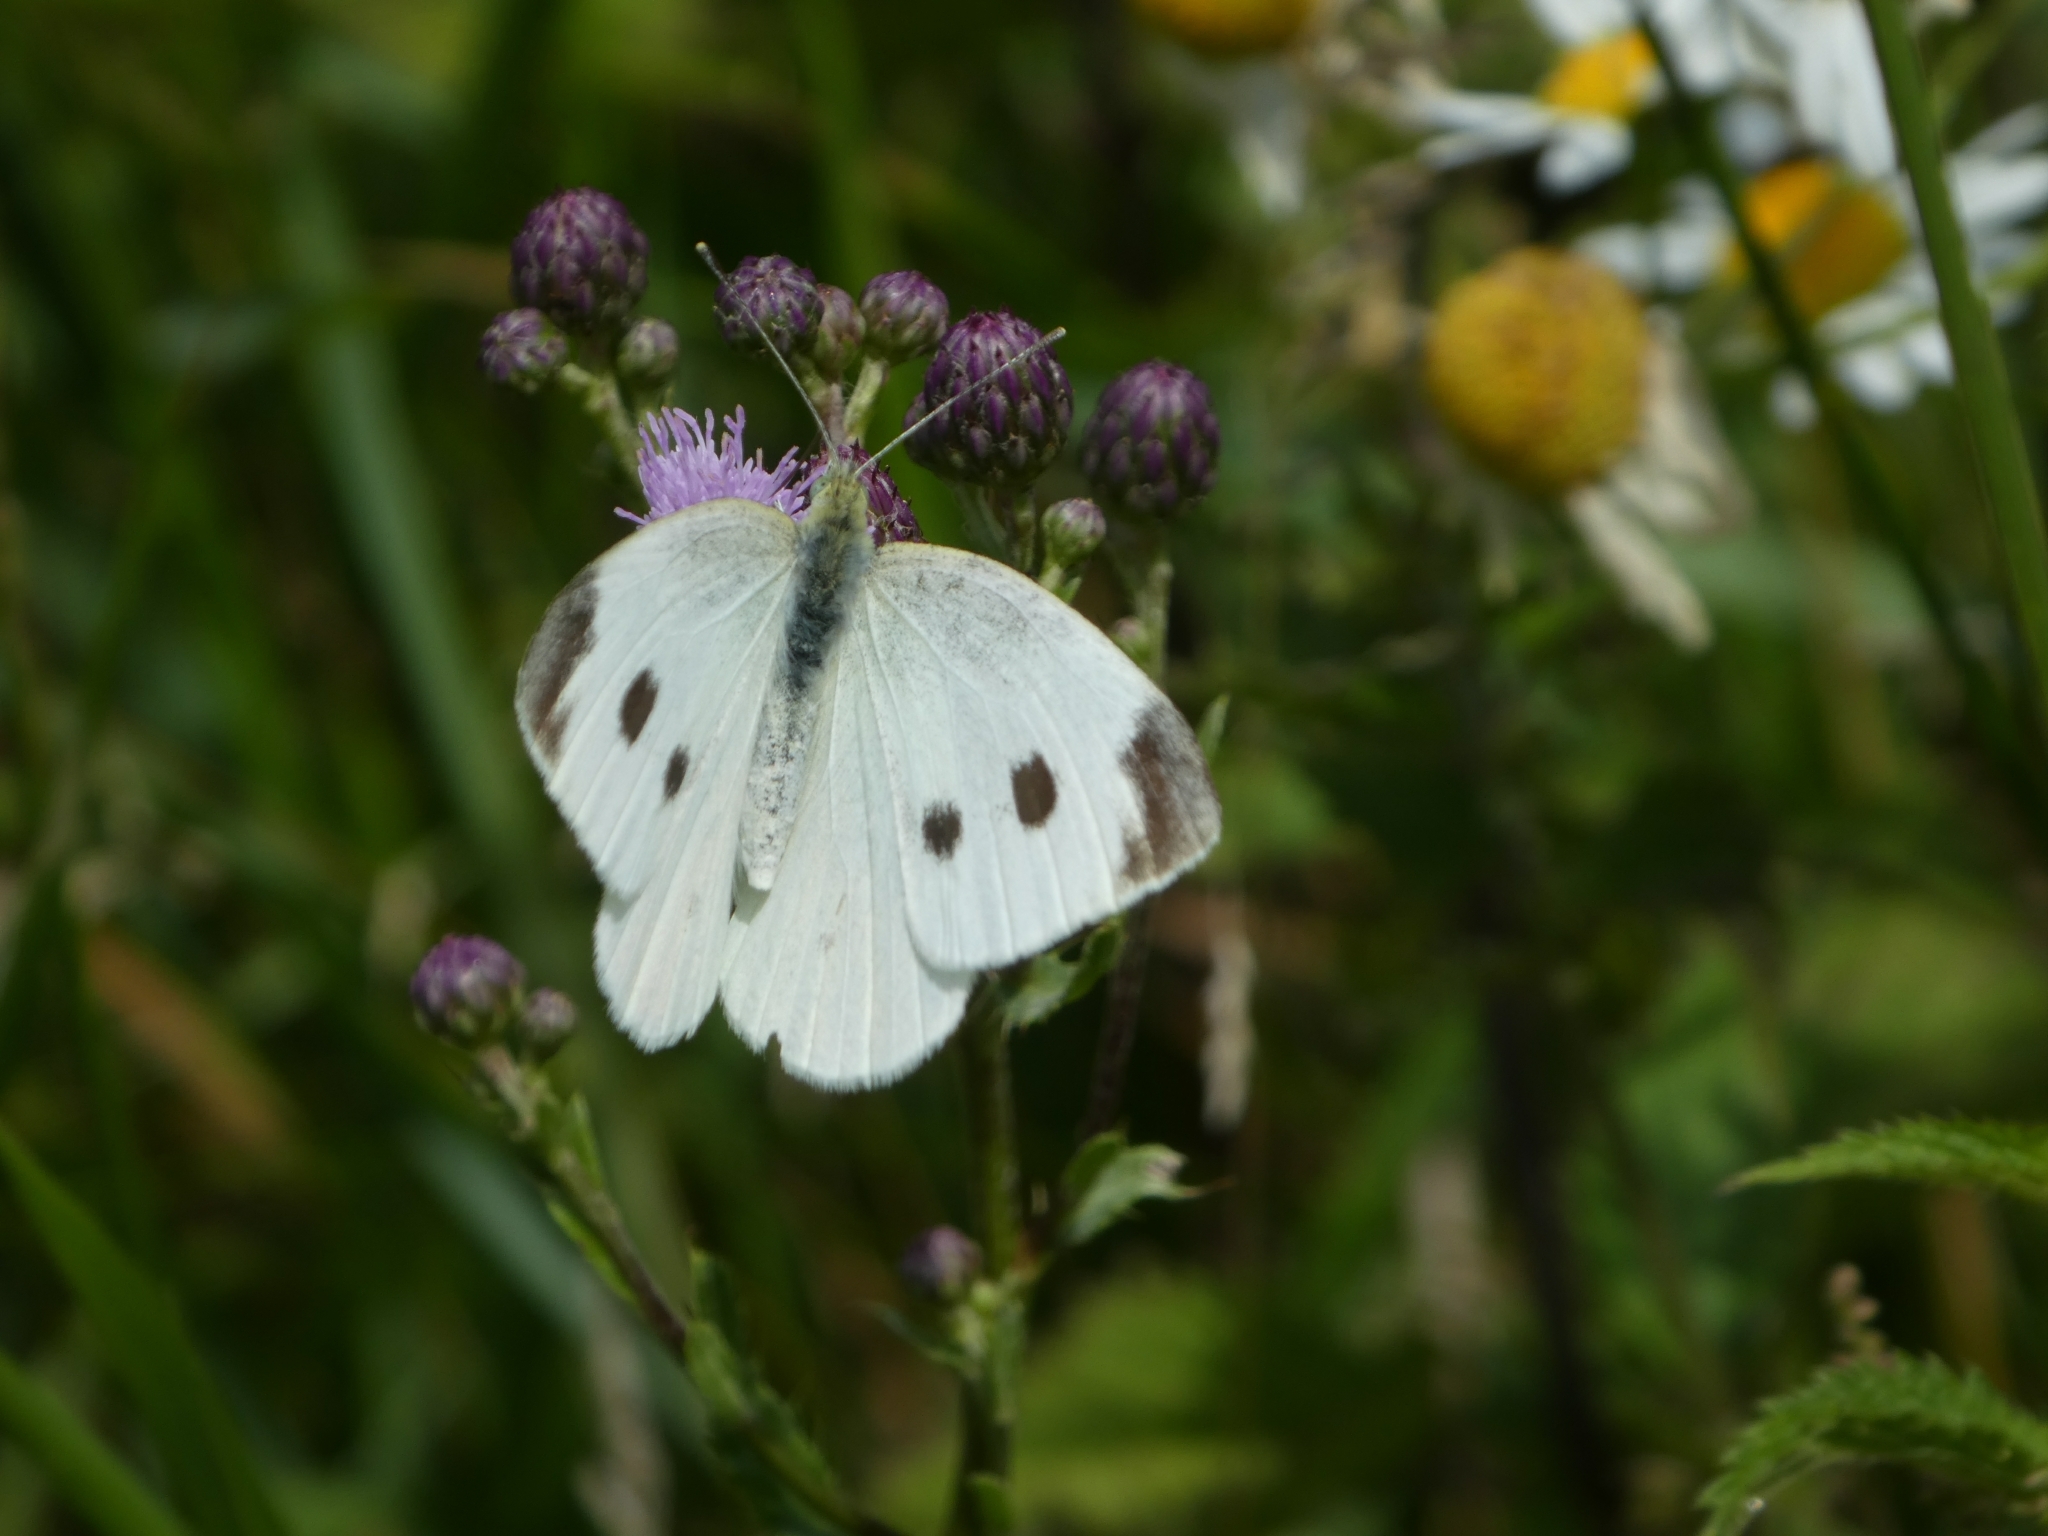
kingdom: Animalia
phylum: Arthropoda
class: Insecta
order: Lepidoptera
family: Pieridae
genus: Pieris
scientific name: Pieris rapae
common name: Small white
